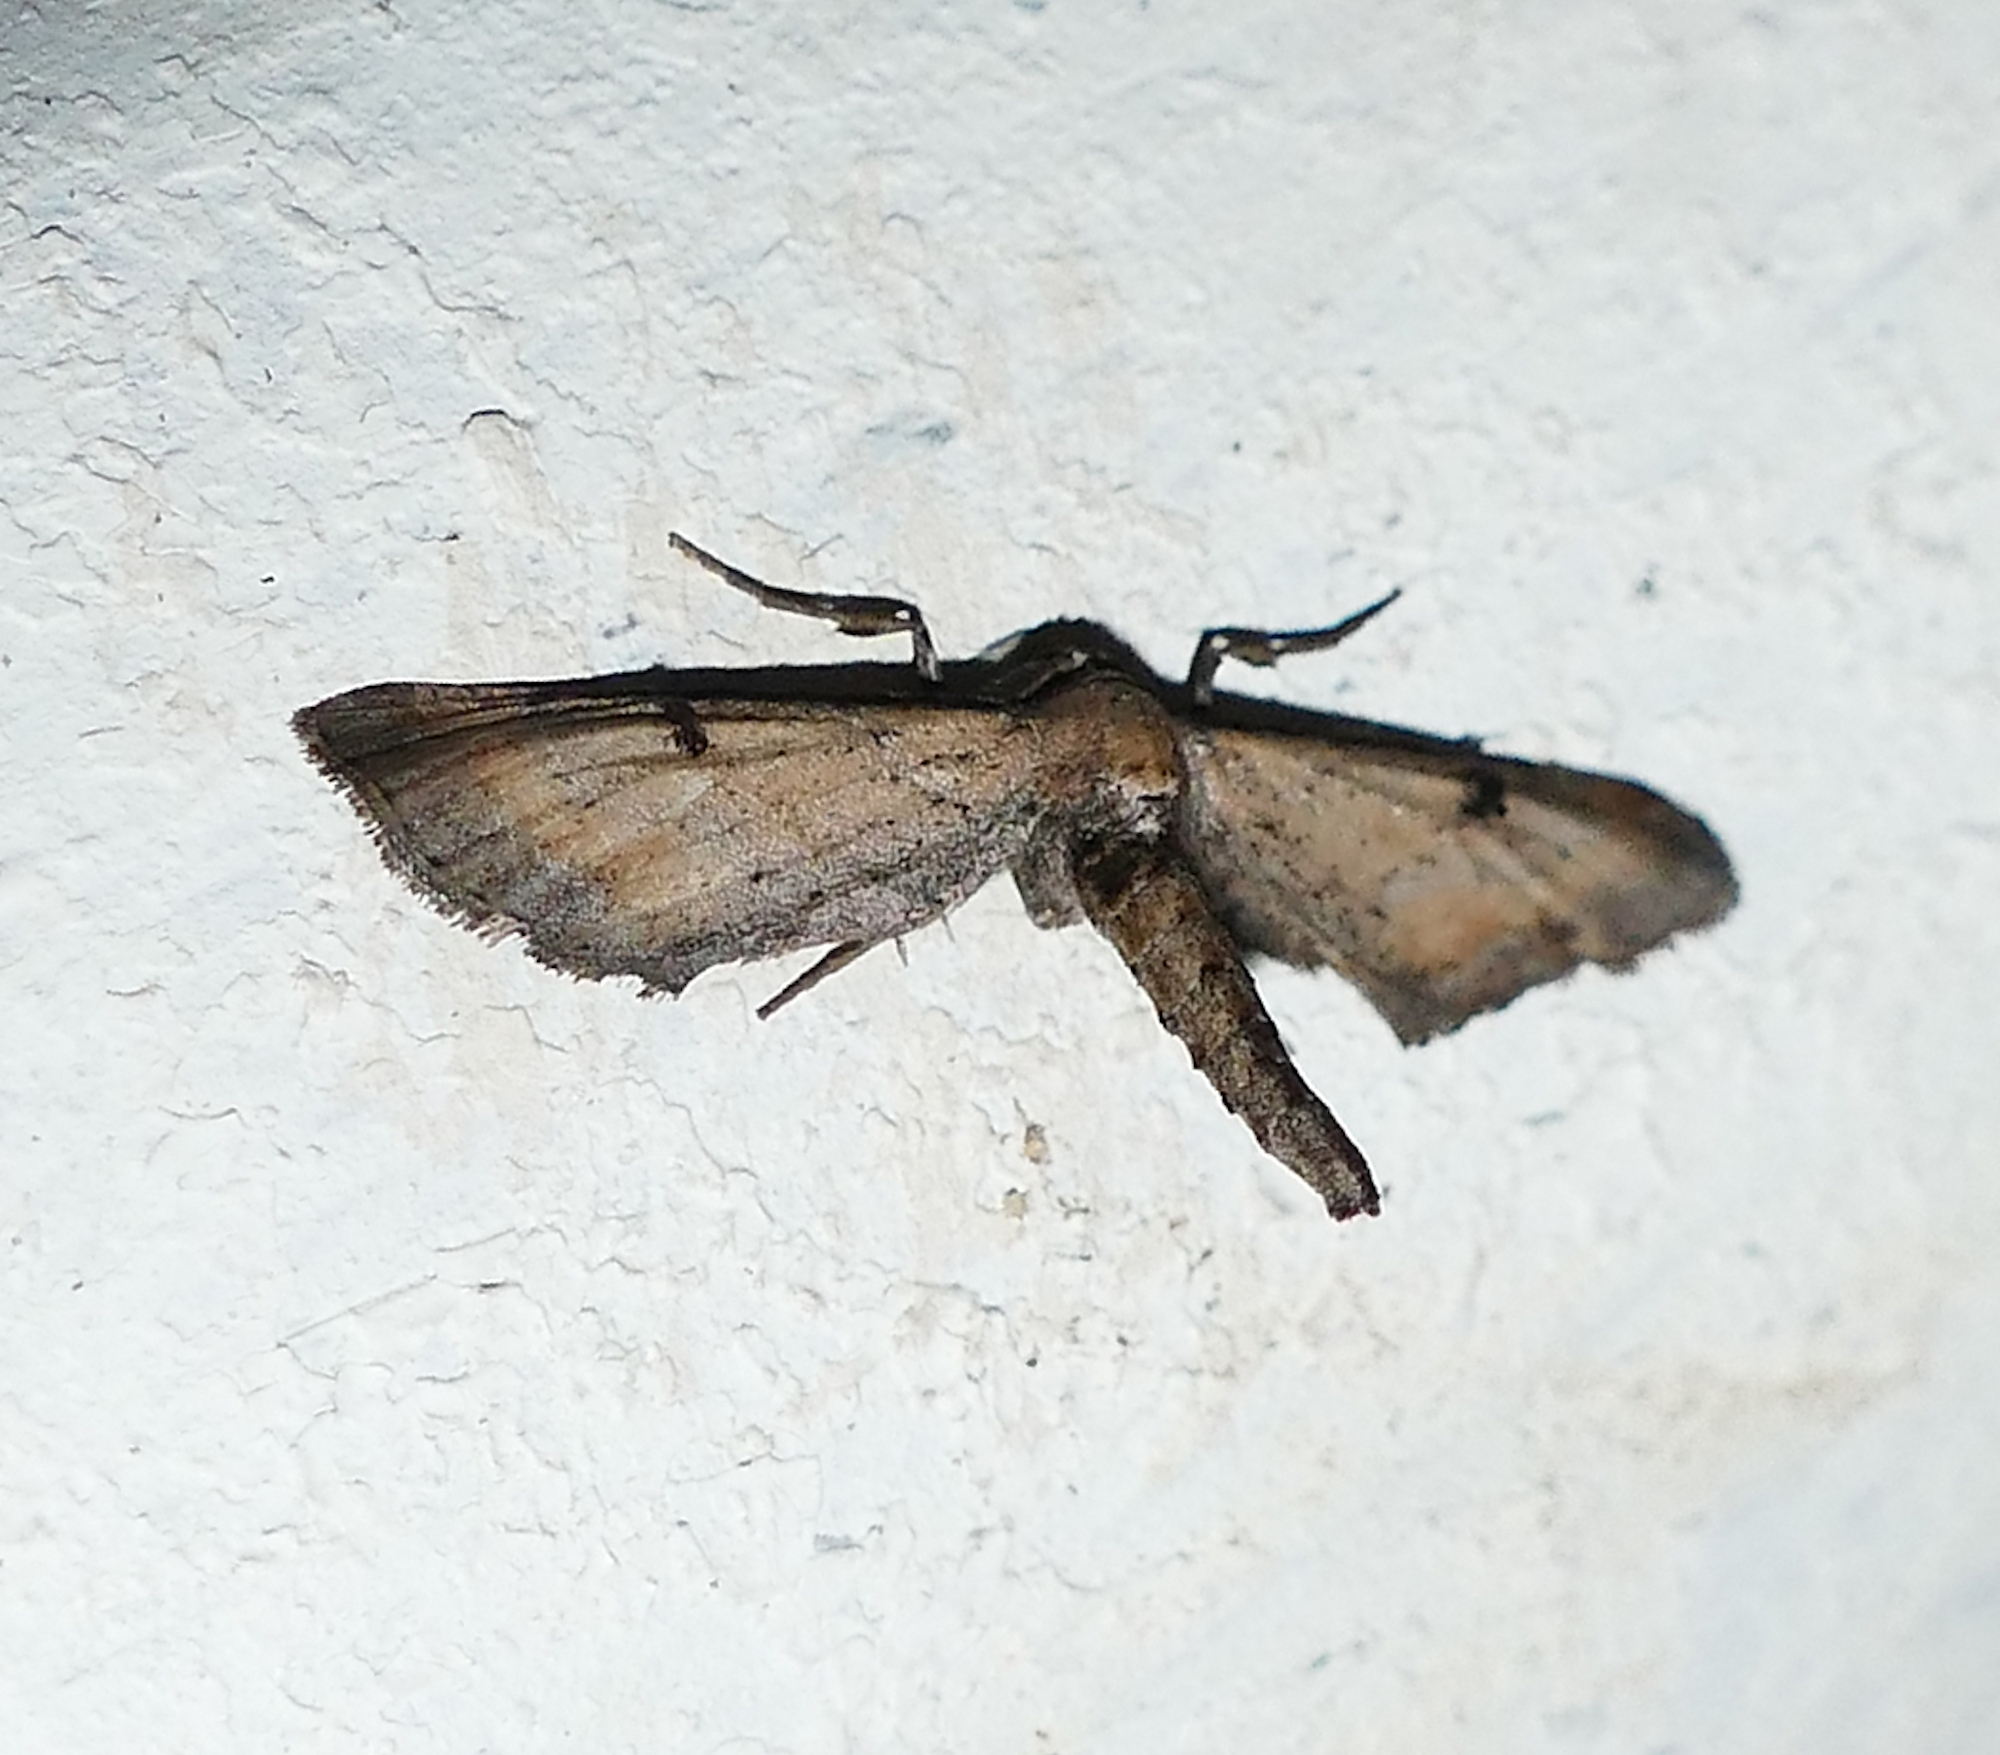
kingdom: Animalia
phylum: Arthropoda
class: Insecta
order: Lepidoptera
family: Geometridae
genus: Tornos
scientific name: Tornos scolopacinaria
